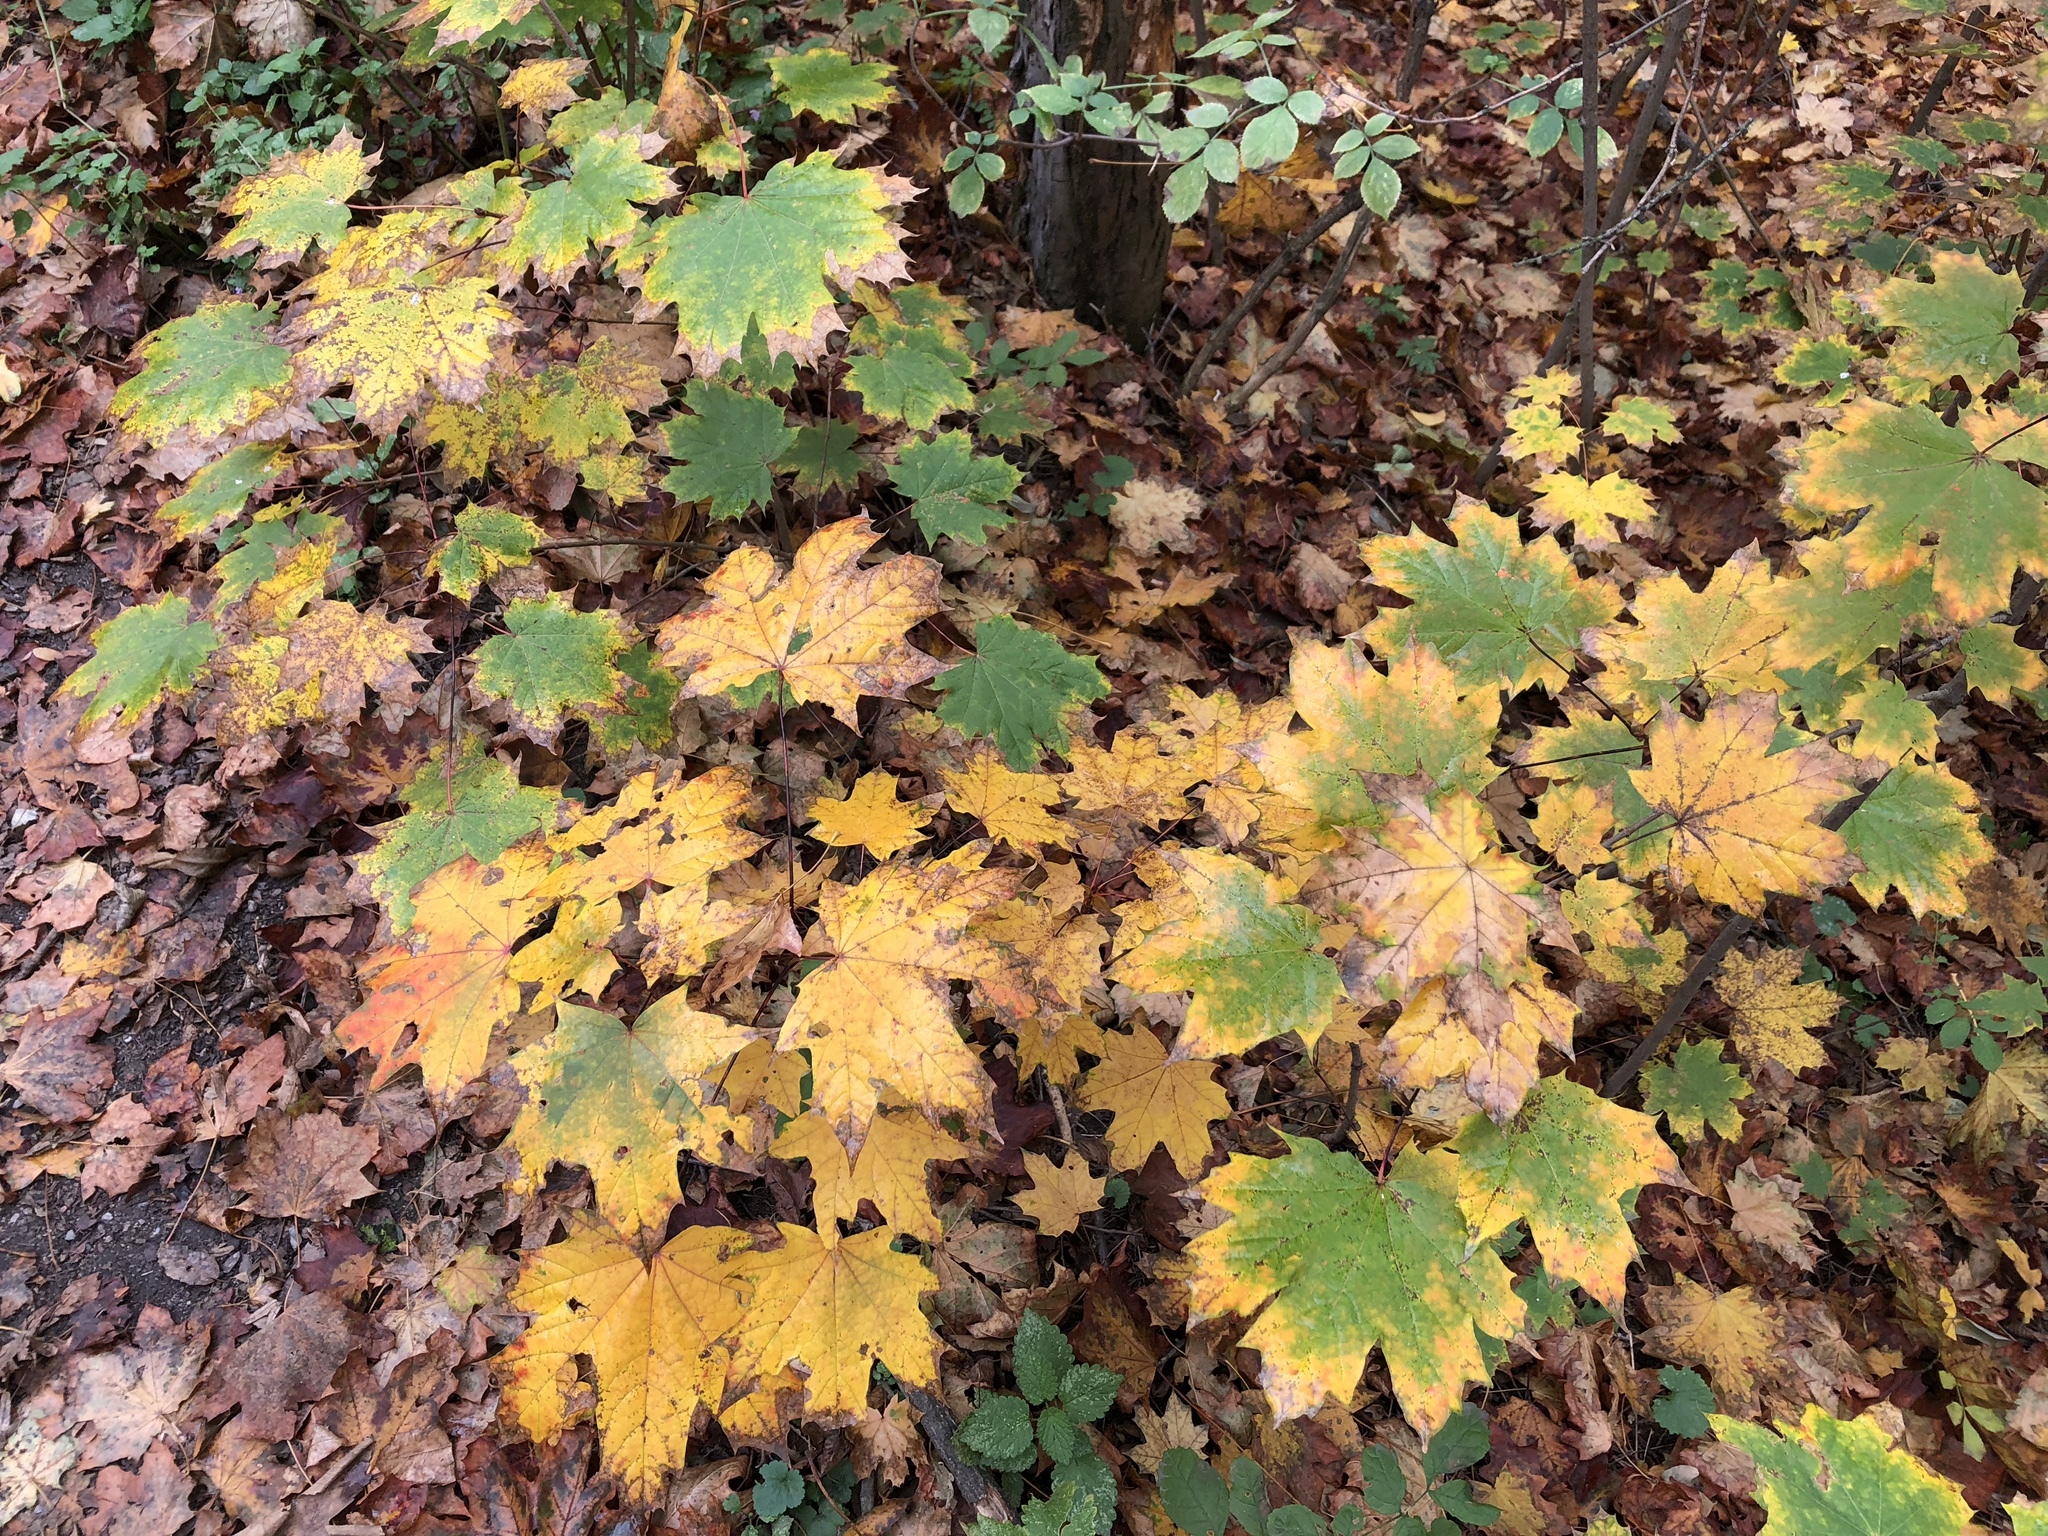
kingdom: Plantae
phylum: Tracheophyta
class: Magnoliopsida
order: Sapindales
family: Sapindaceae
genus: Acer
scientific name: Acer platanoides
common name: Norway maple
